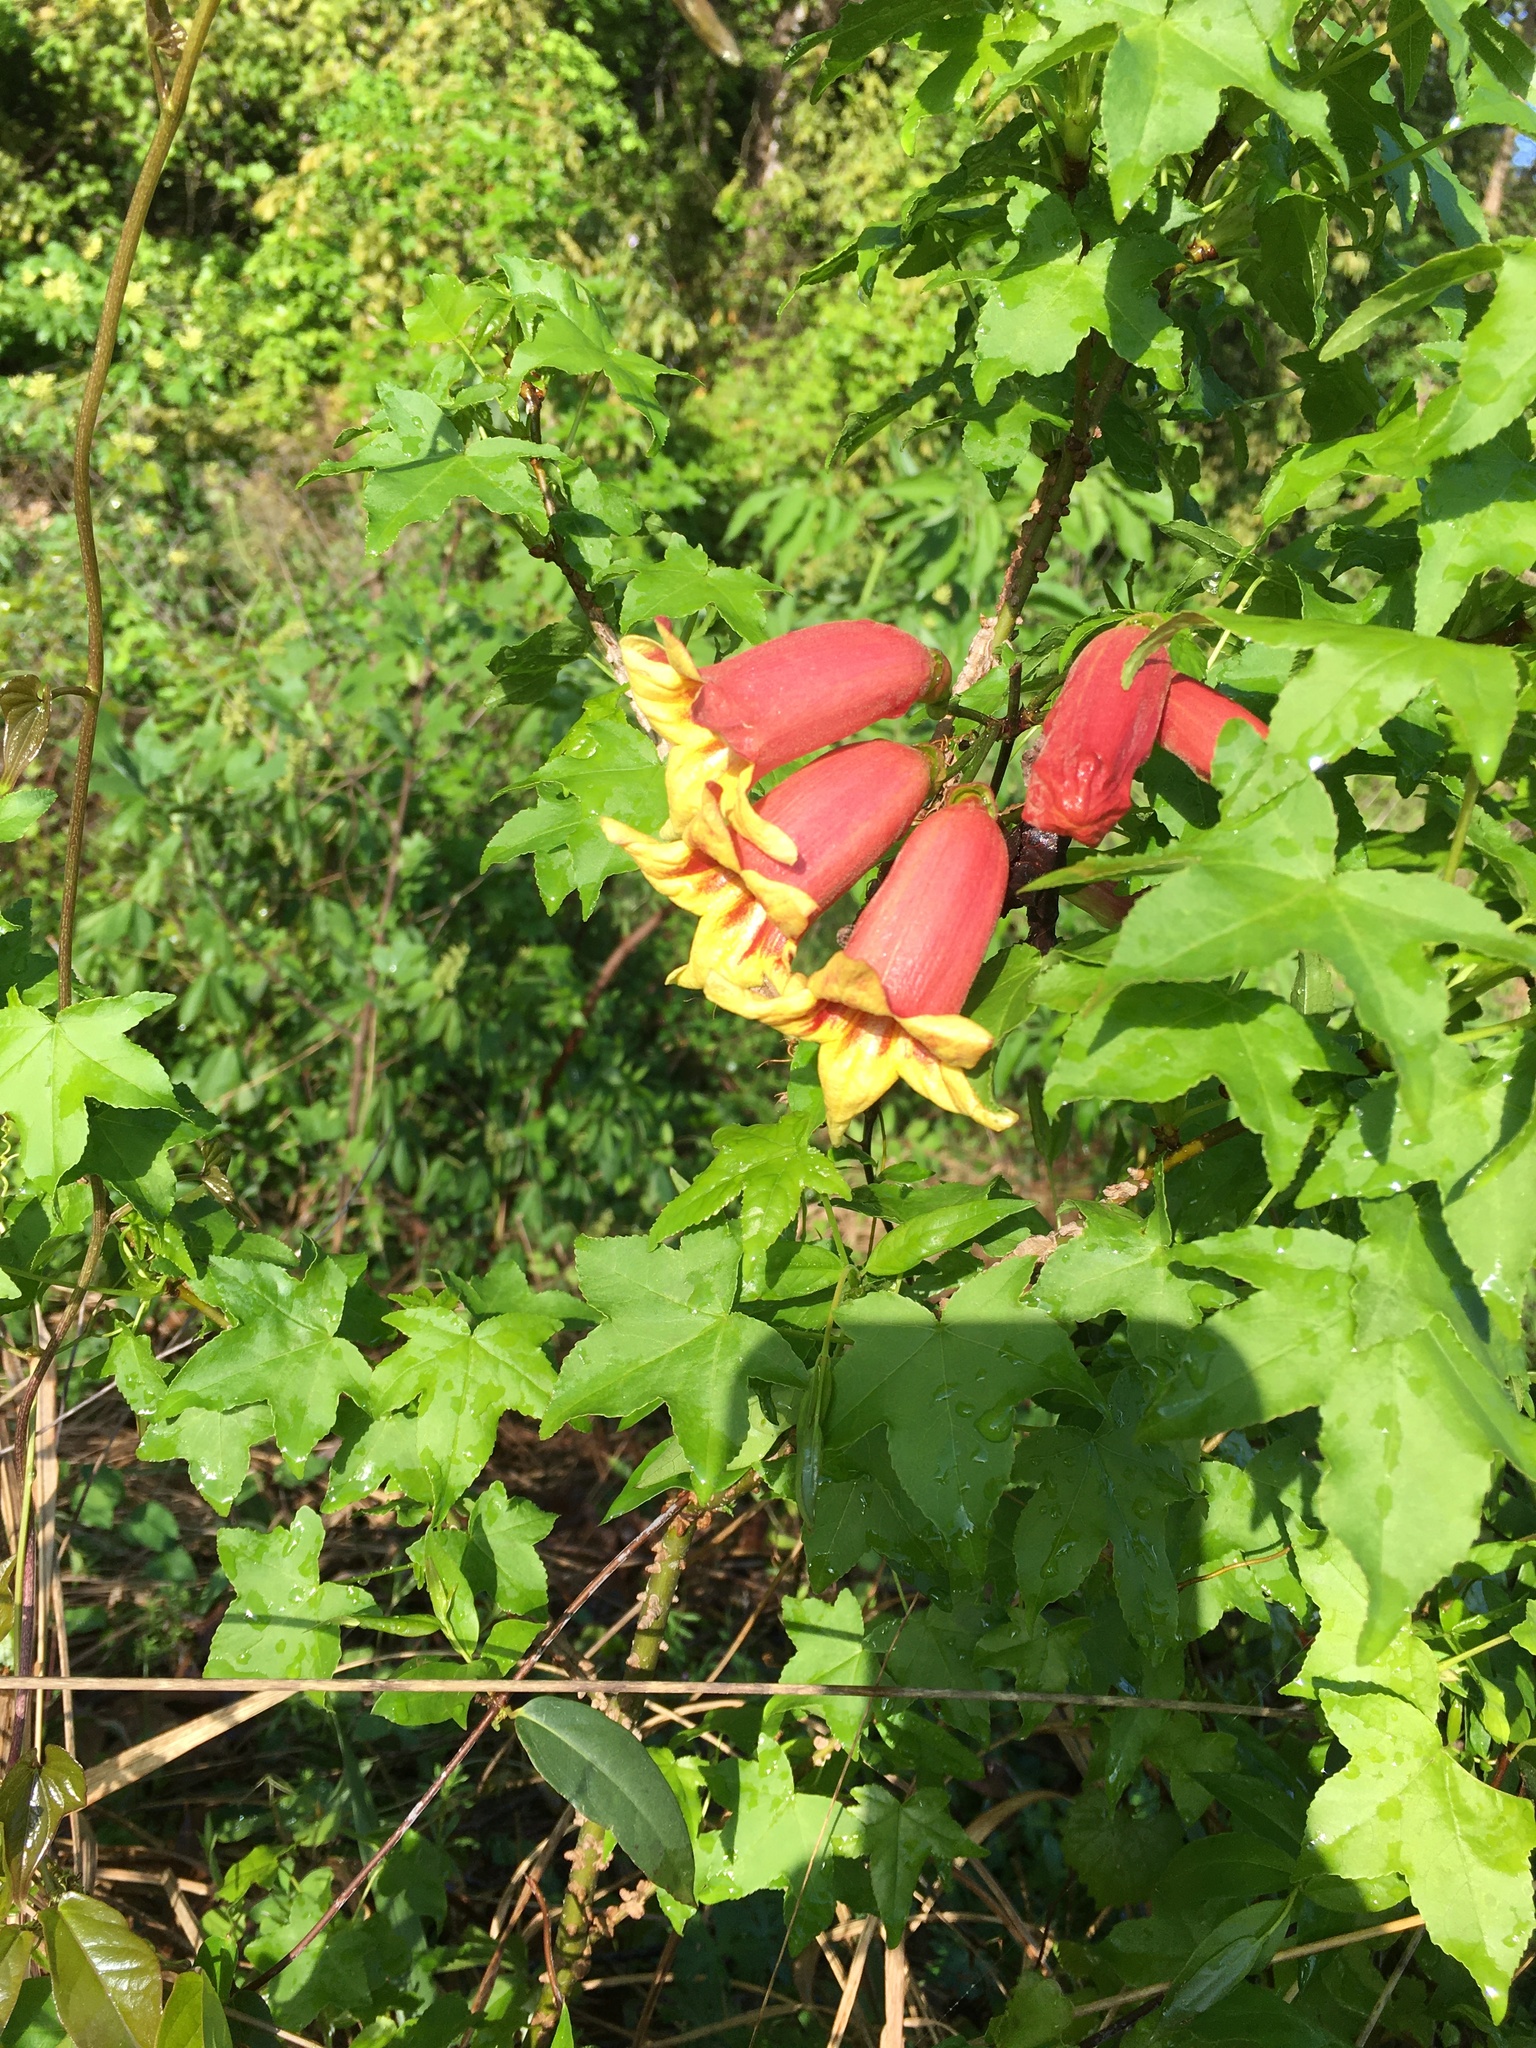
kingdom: Plantae
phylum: Tracheophyta
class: Magnoliopsida
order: Lamiales
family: Bignoniaceae
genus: Bignonia
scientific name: Bignonia capreolata
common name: Crossvine
